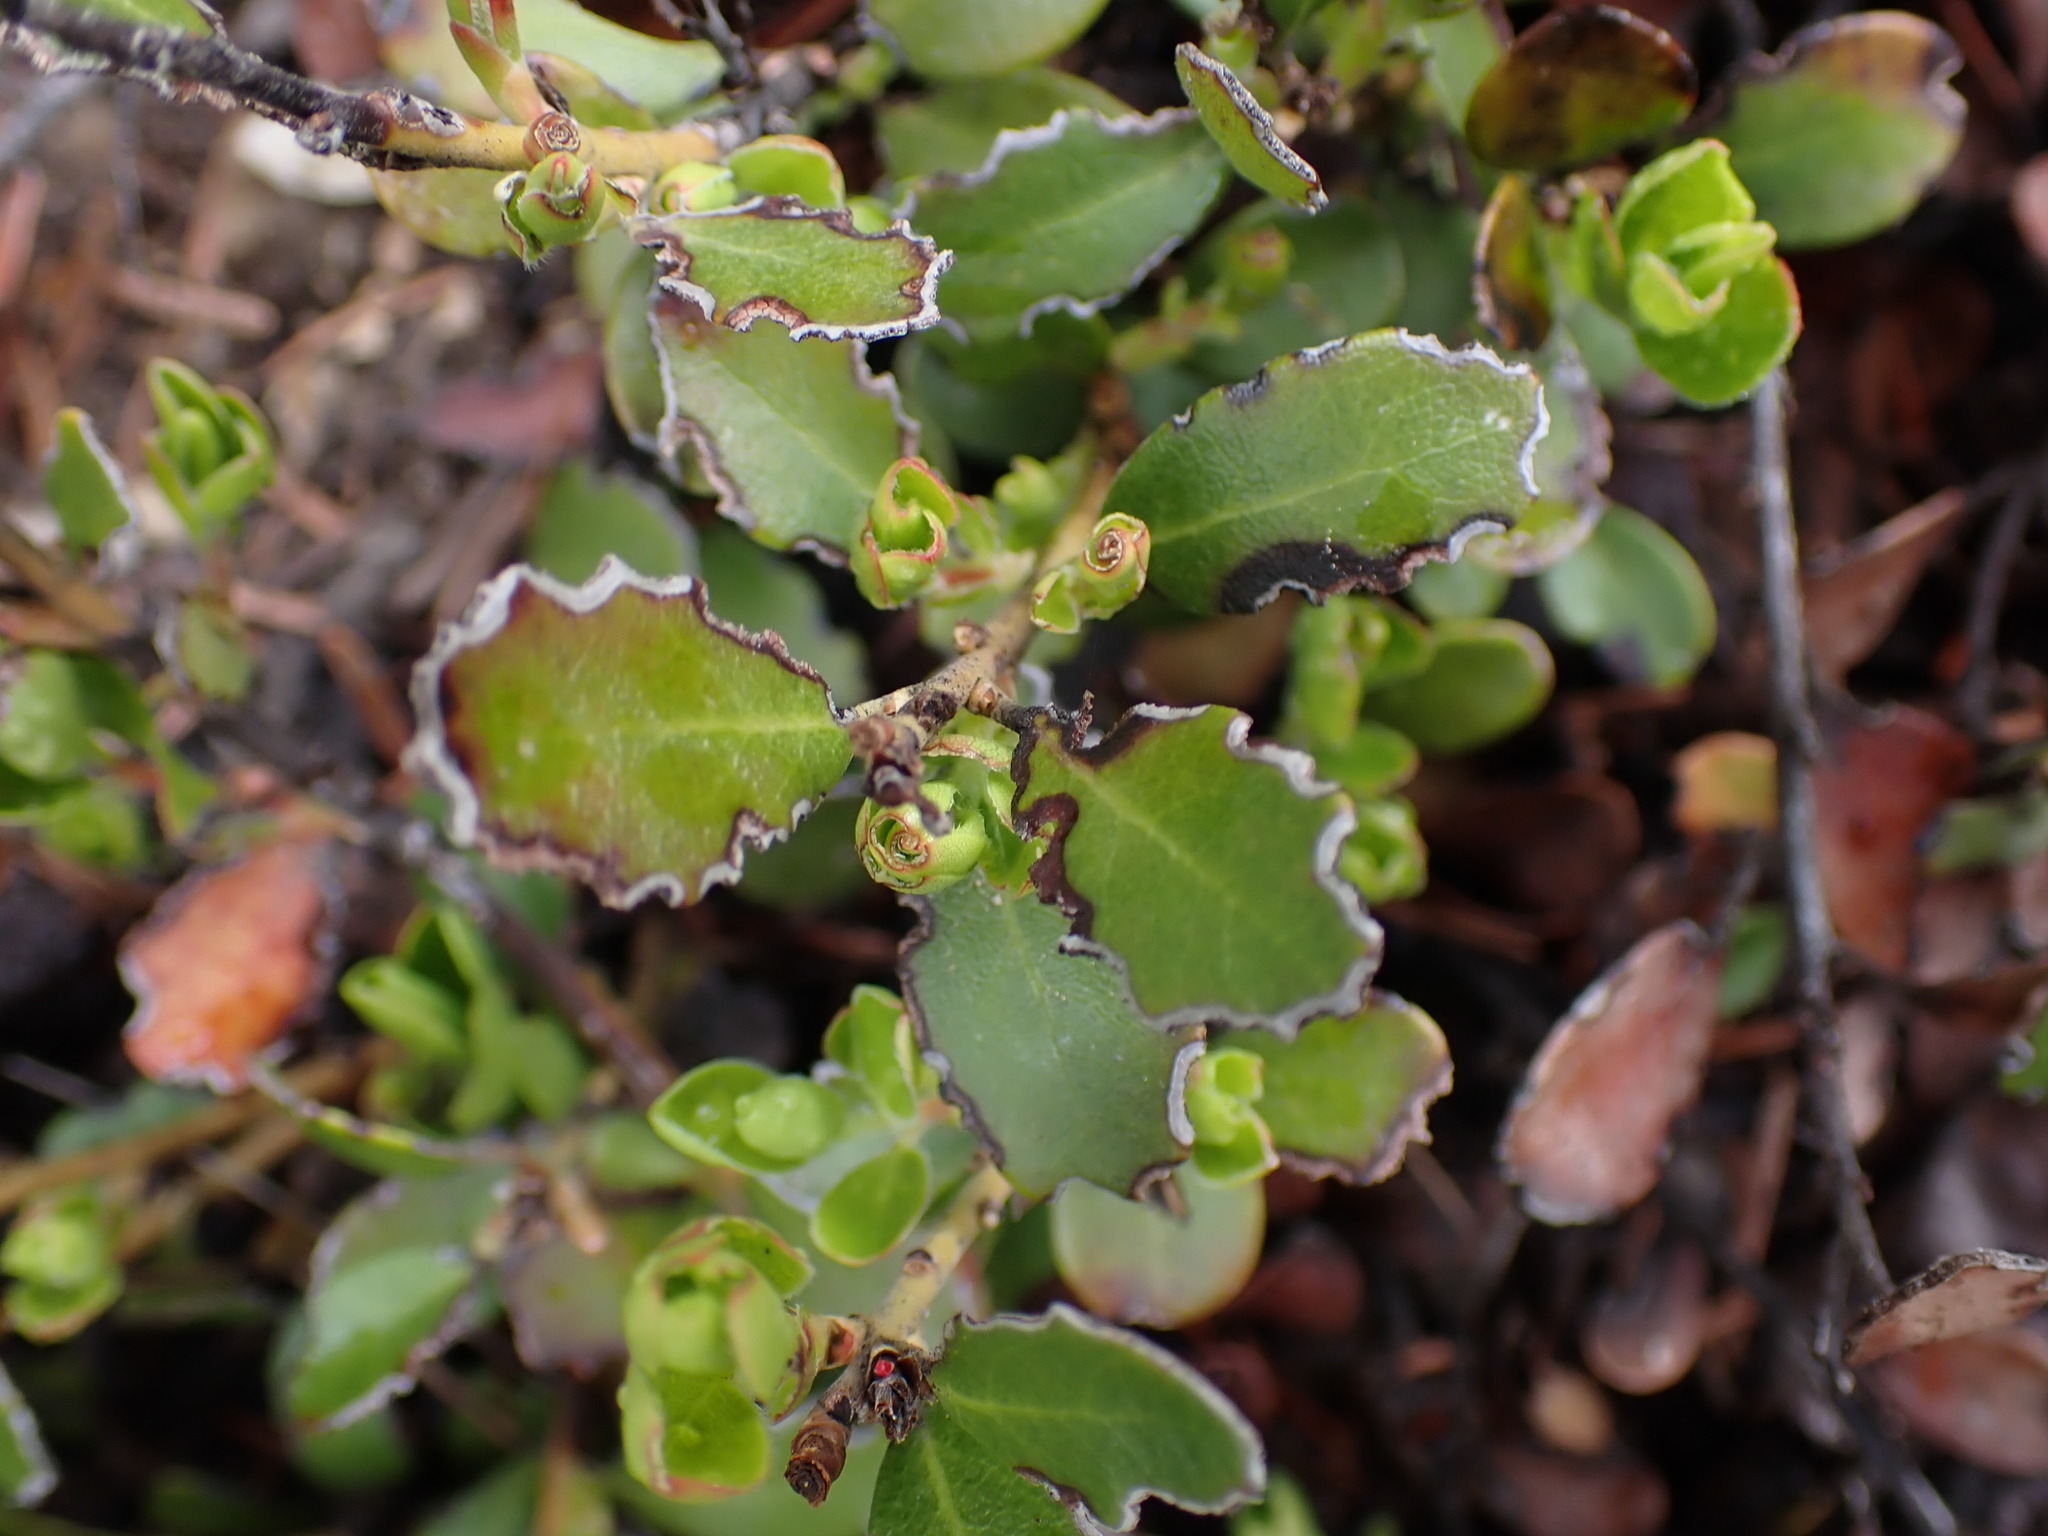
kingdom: Plantae
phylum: Tracheophyta
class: Magnoliopsida
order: Ericales
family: Ericaceae
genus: Arctostaphylos
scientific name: Arctostaphylos uva-ursi
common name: Bearberry
